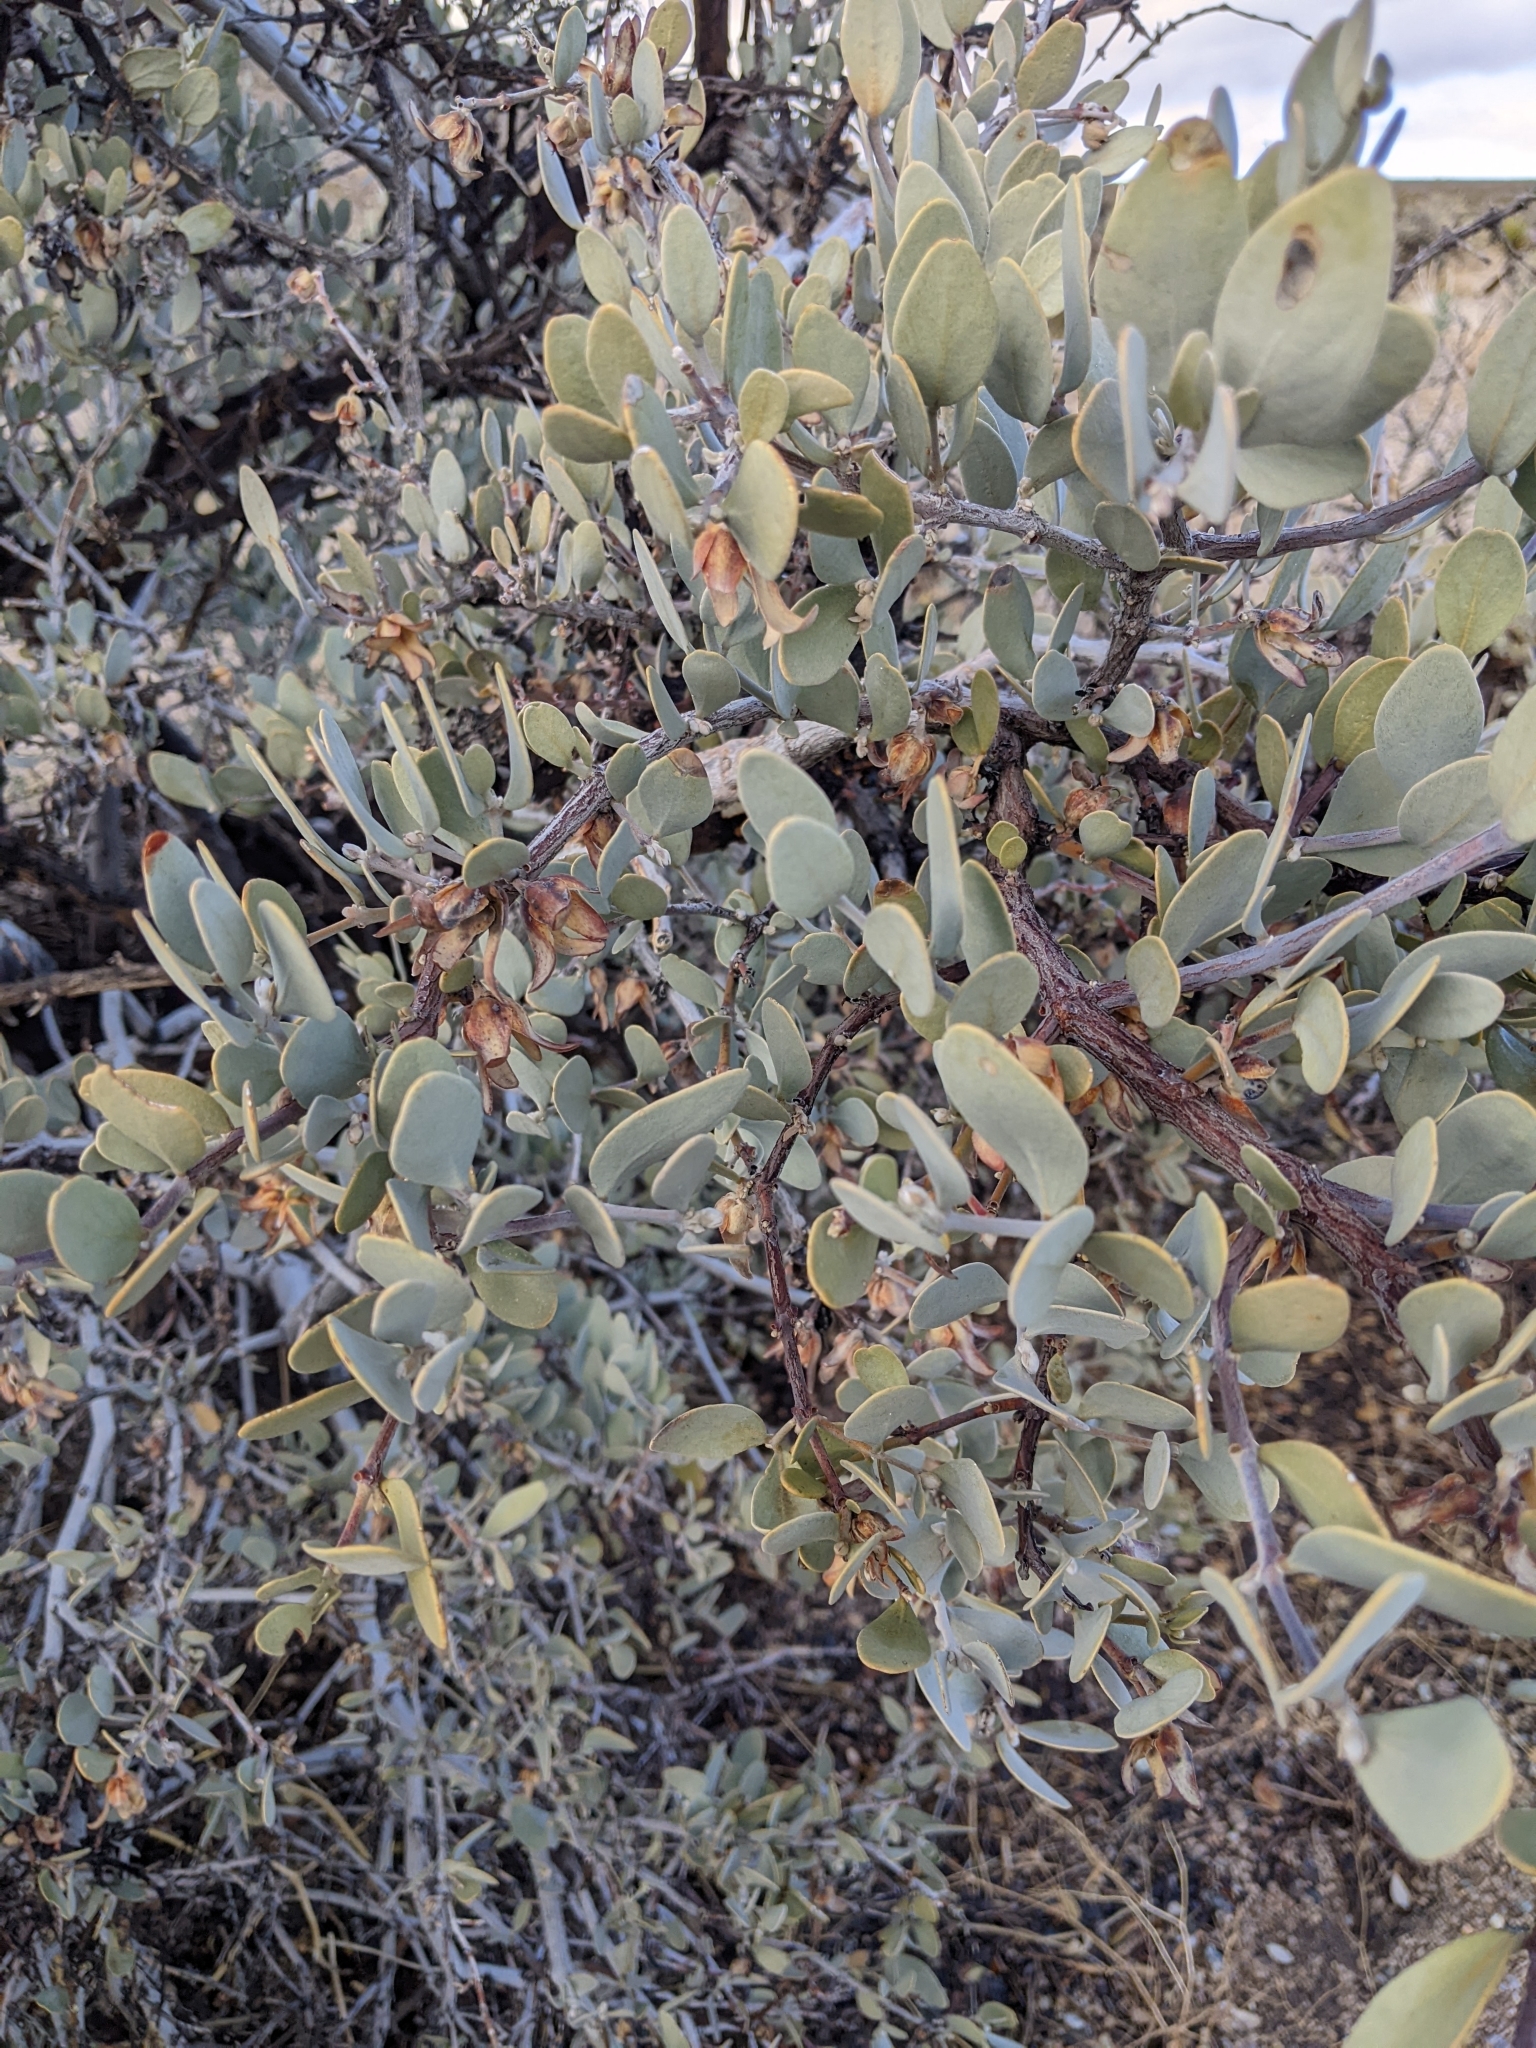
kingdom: Plantae
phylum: Tracheophyta
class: Magnoliopsida
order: Caryophyllales
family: Simmondsiaceae
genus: Simmondsia
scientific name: Simmondsia chinensis
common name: Jojoba
